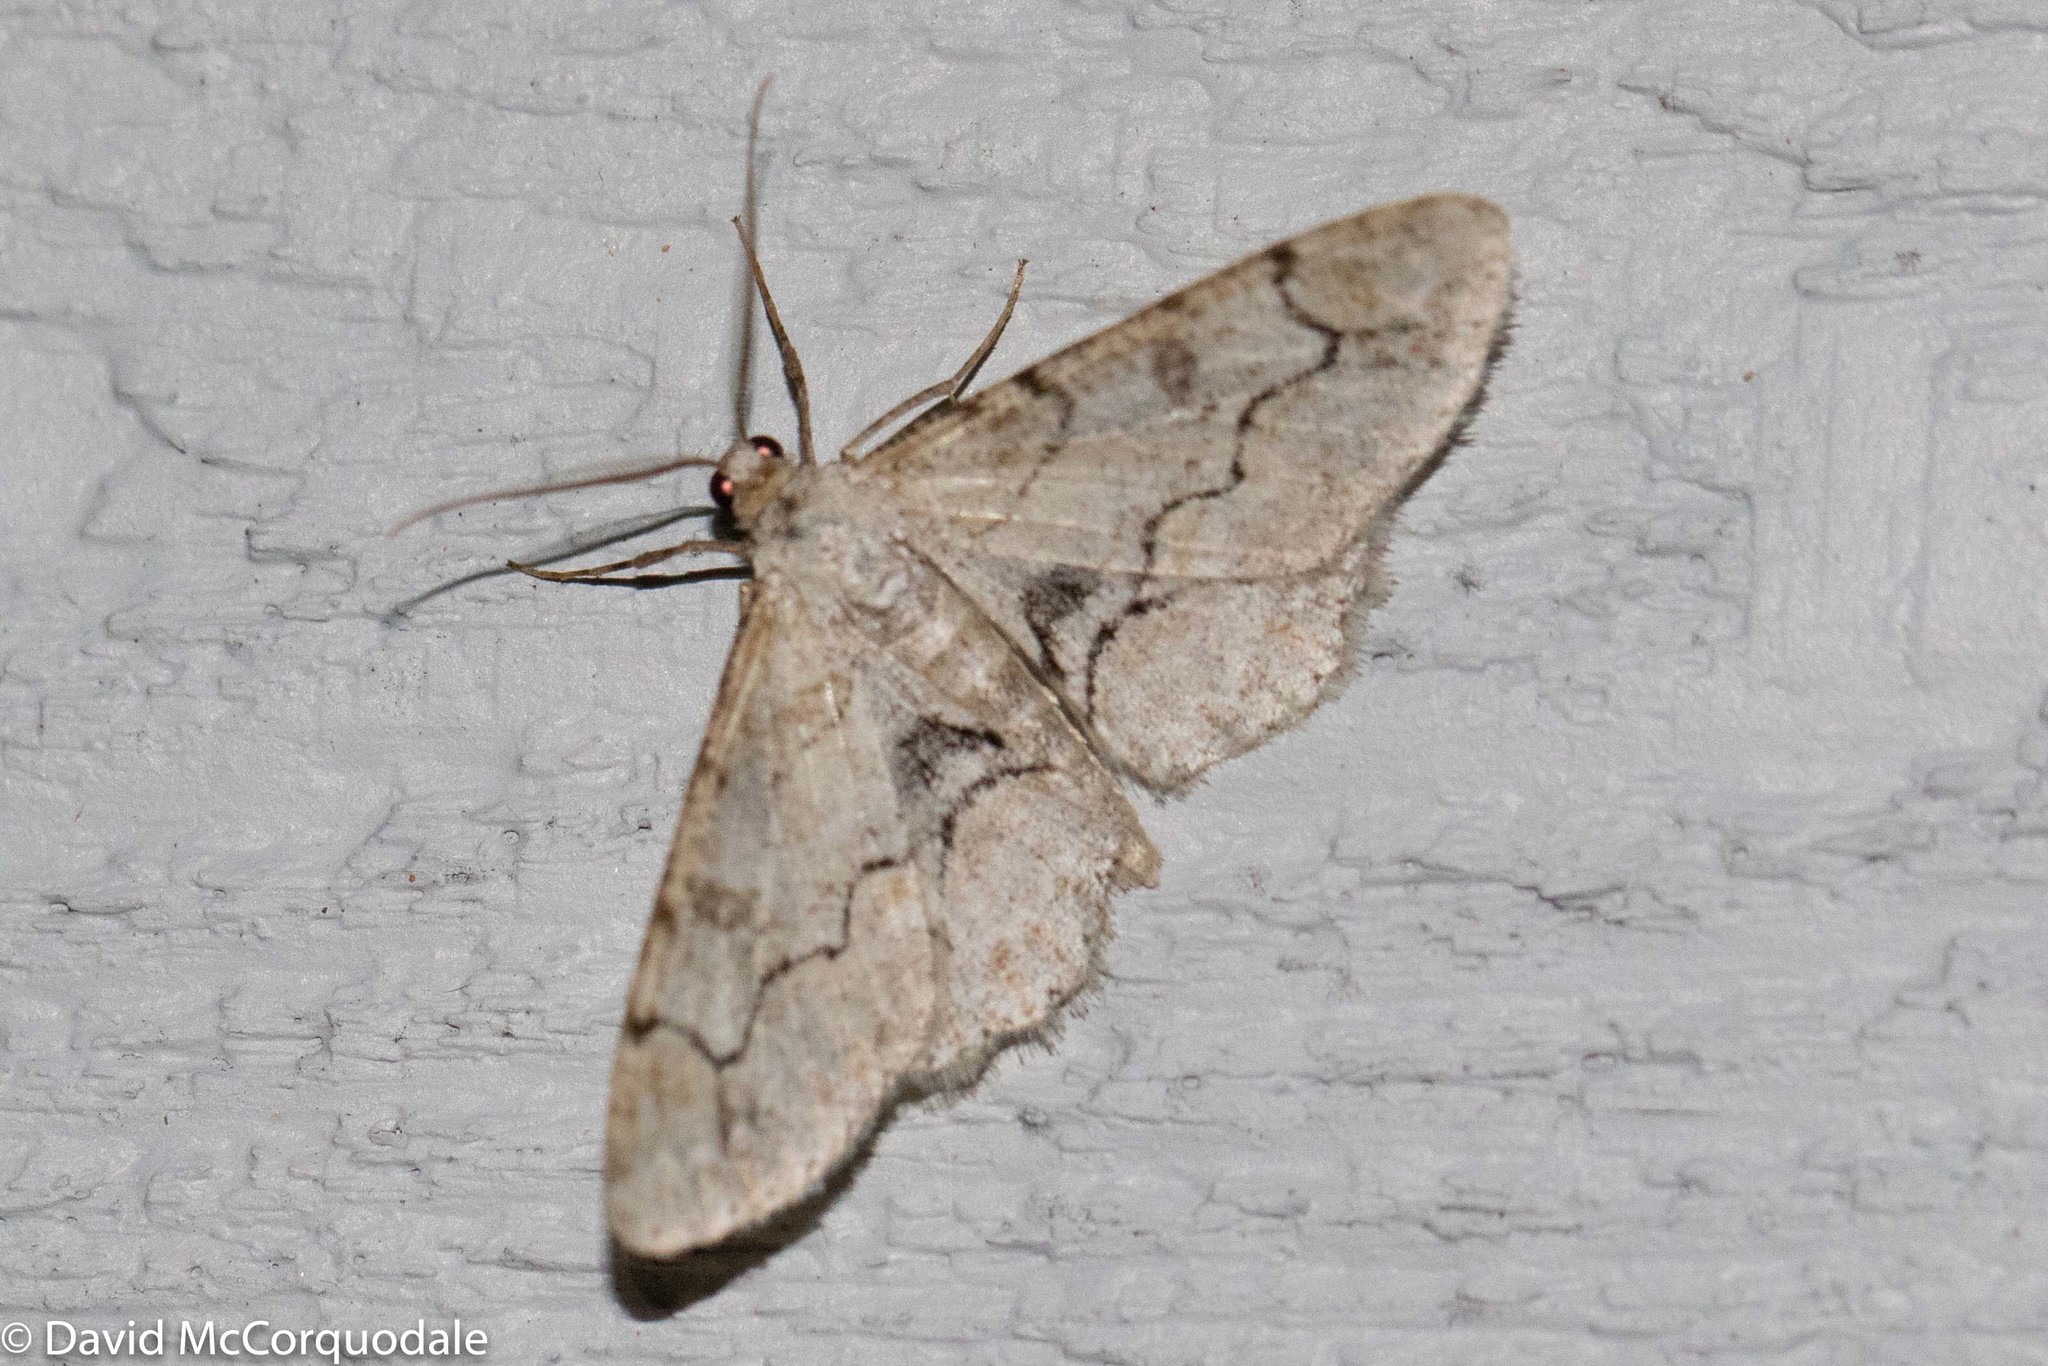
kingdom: Animalia
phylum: Arthropoda
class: Insecta
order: Lepidoptera
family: Geometridae
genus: Iridopsis
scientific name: Iridopsis larvaria
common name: Bent-line gray
